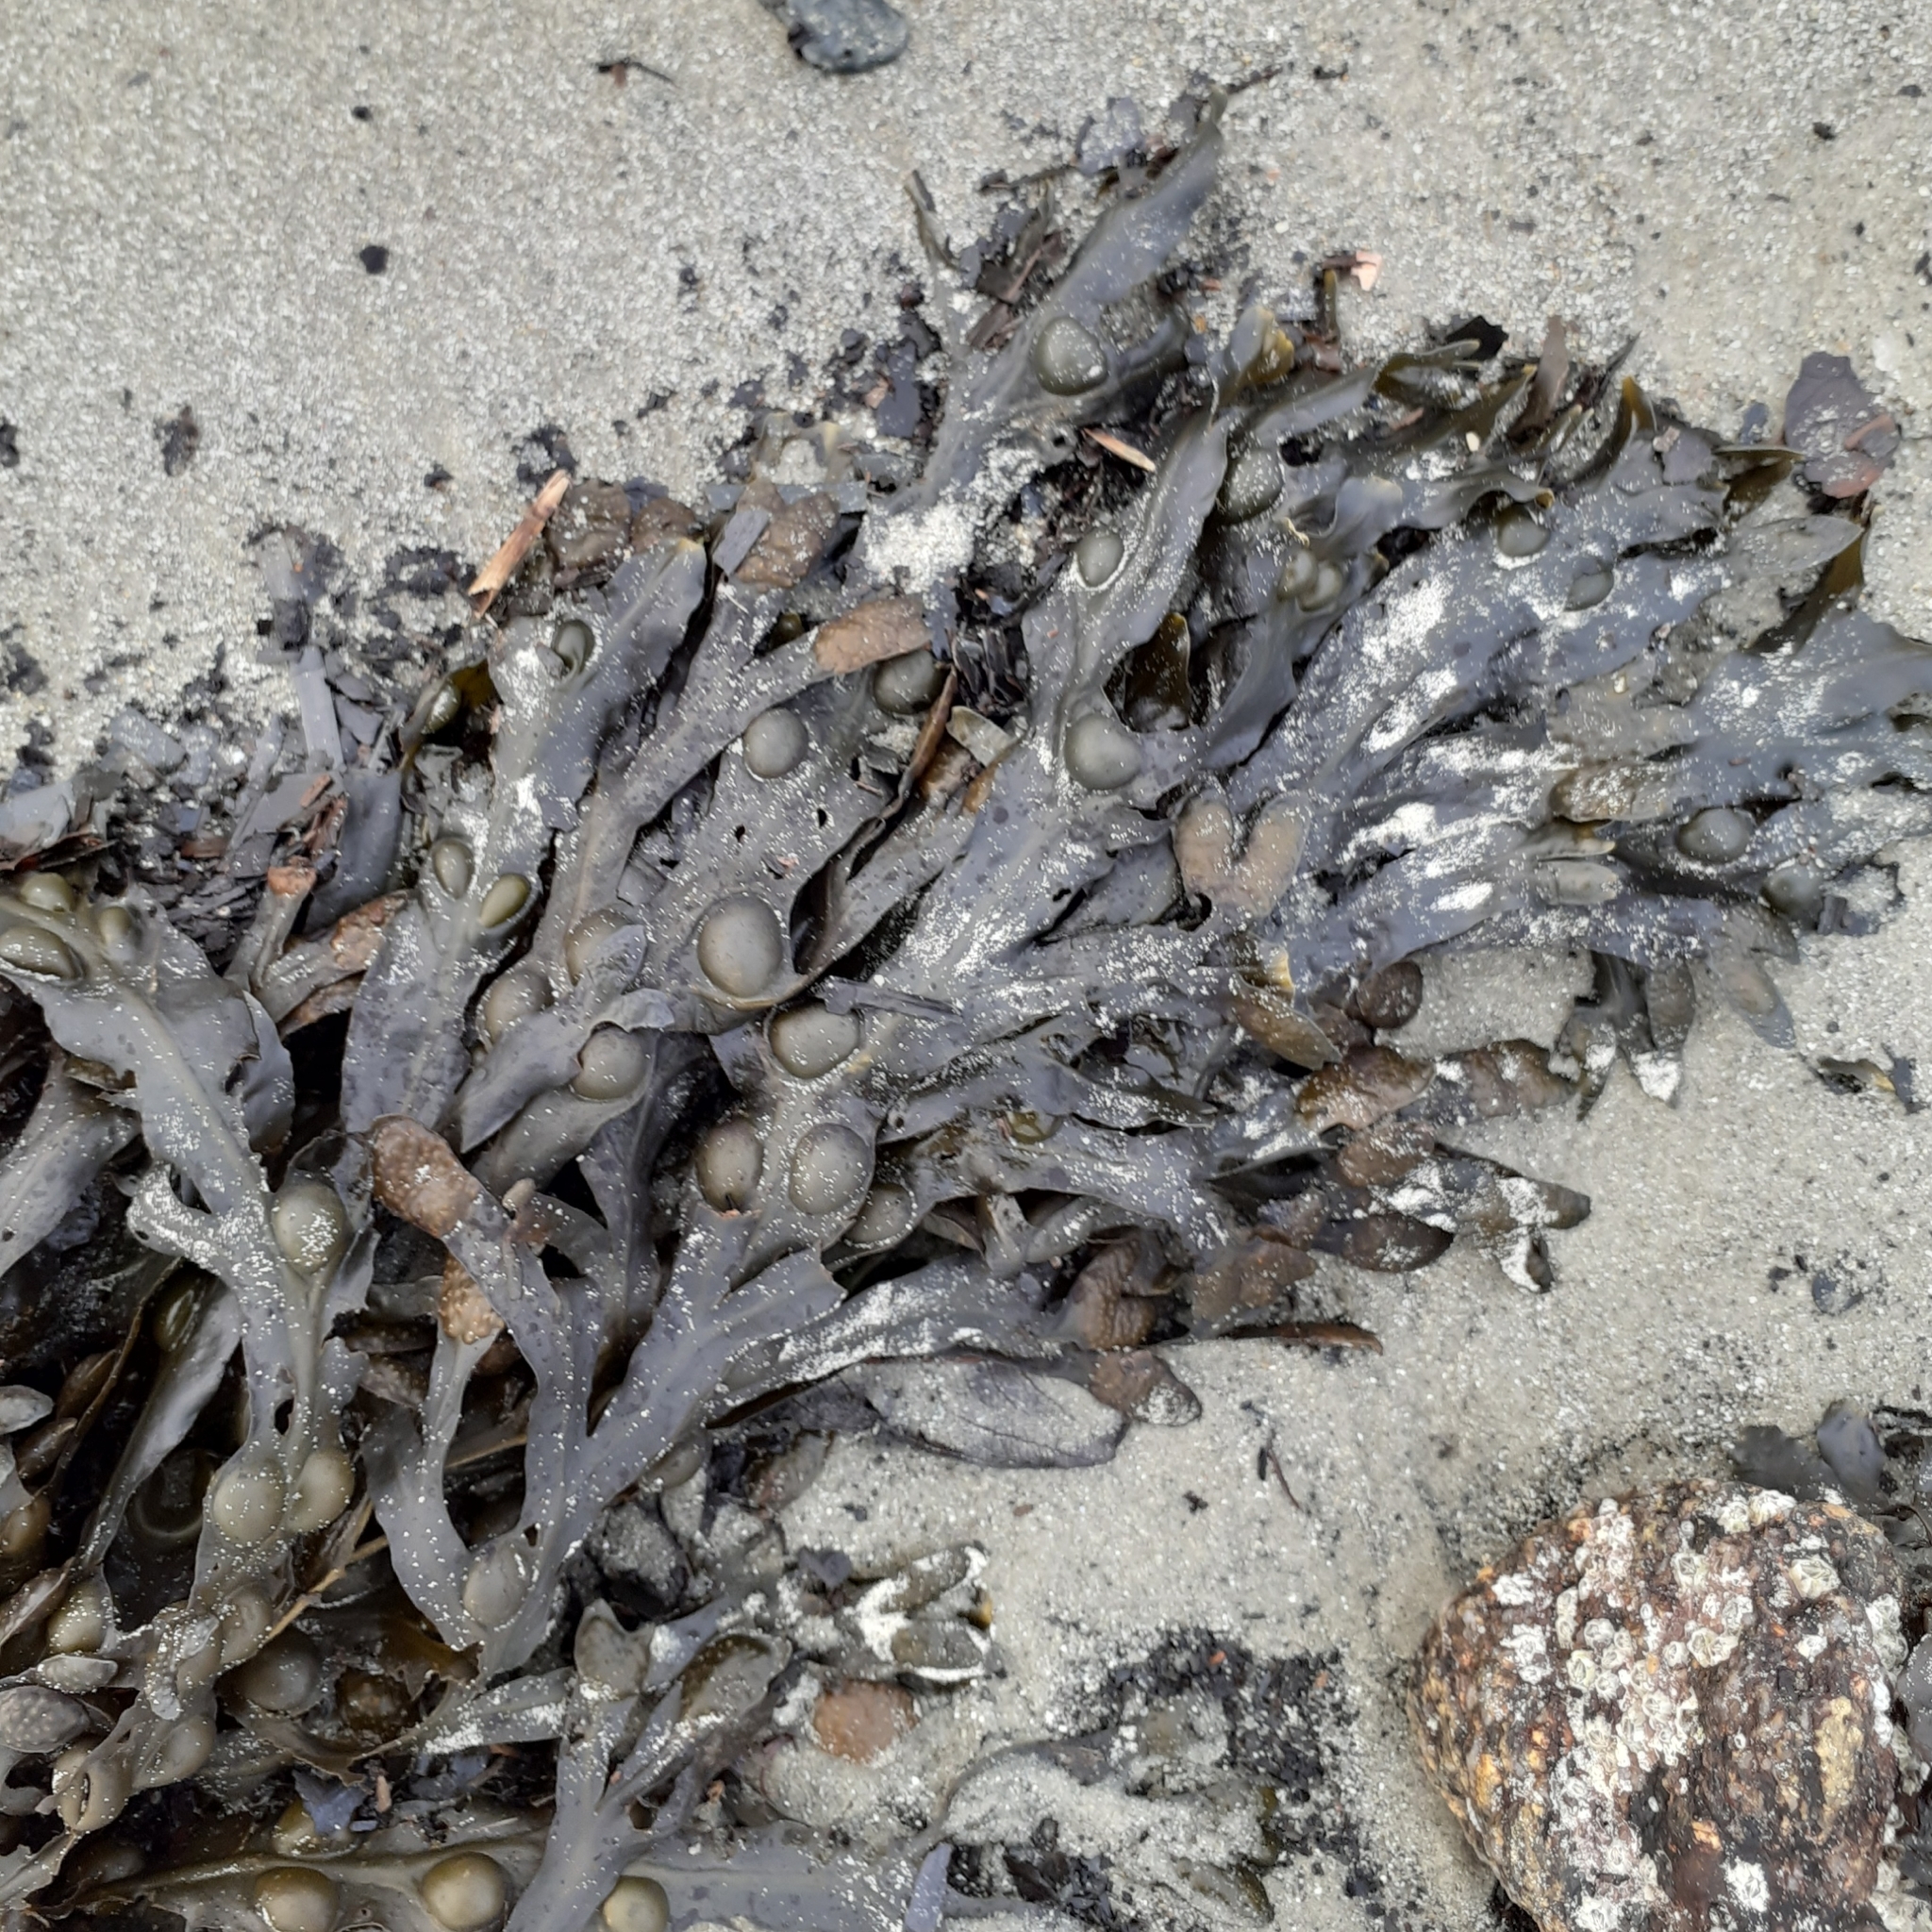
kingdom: Chromista
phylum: Ochrophyta
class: Phaeophyceae
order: Fucales
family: Fucaceae
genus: Fucus
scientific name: Fucus vesiculosus
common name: Bladder wrack
